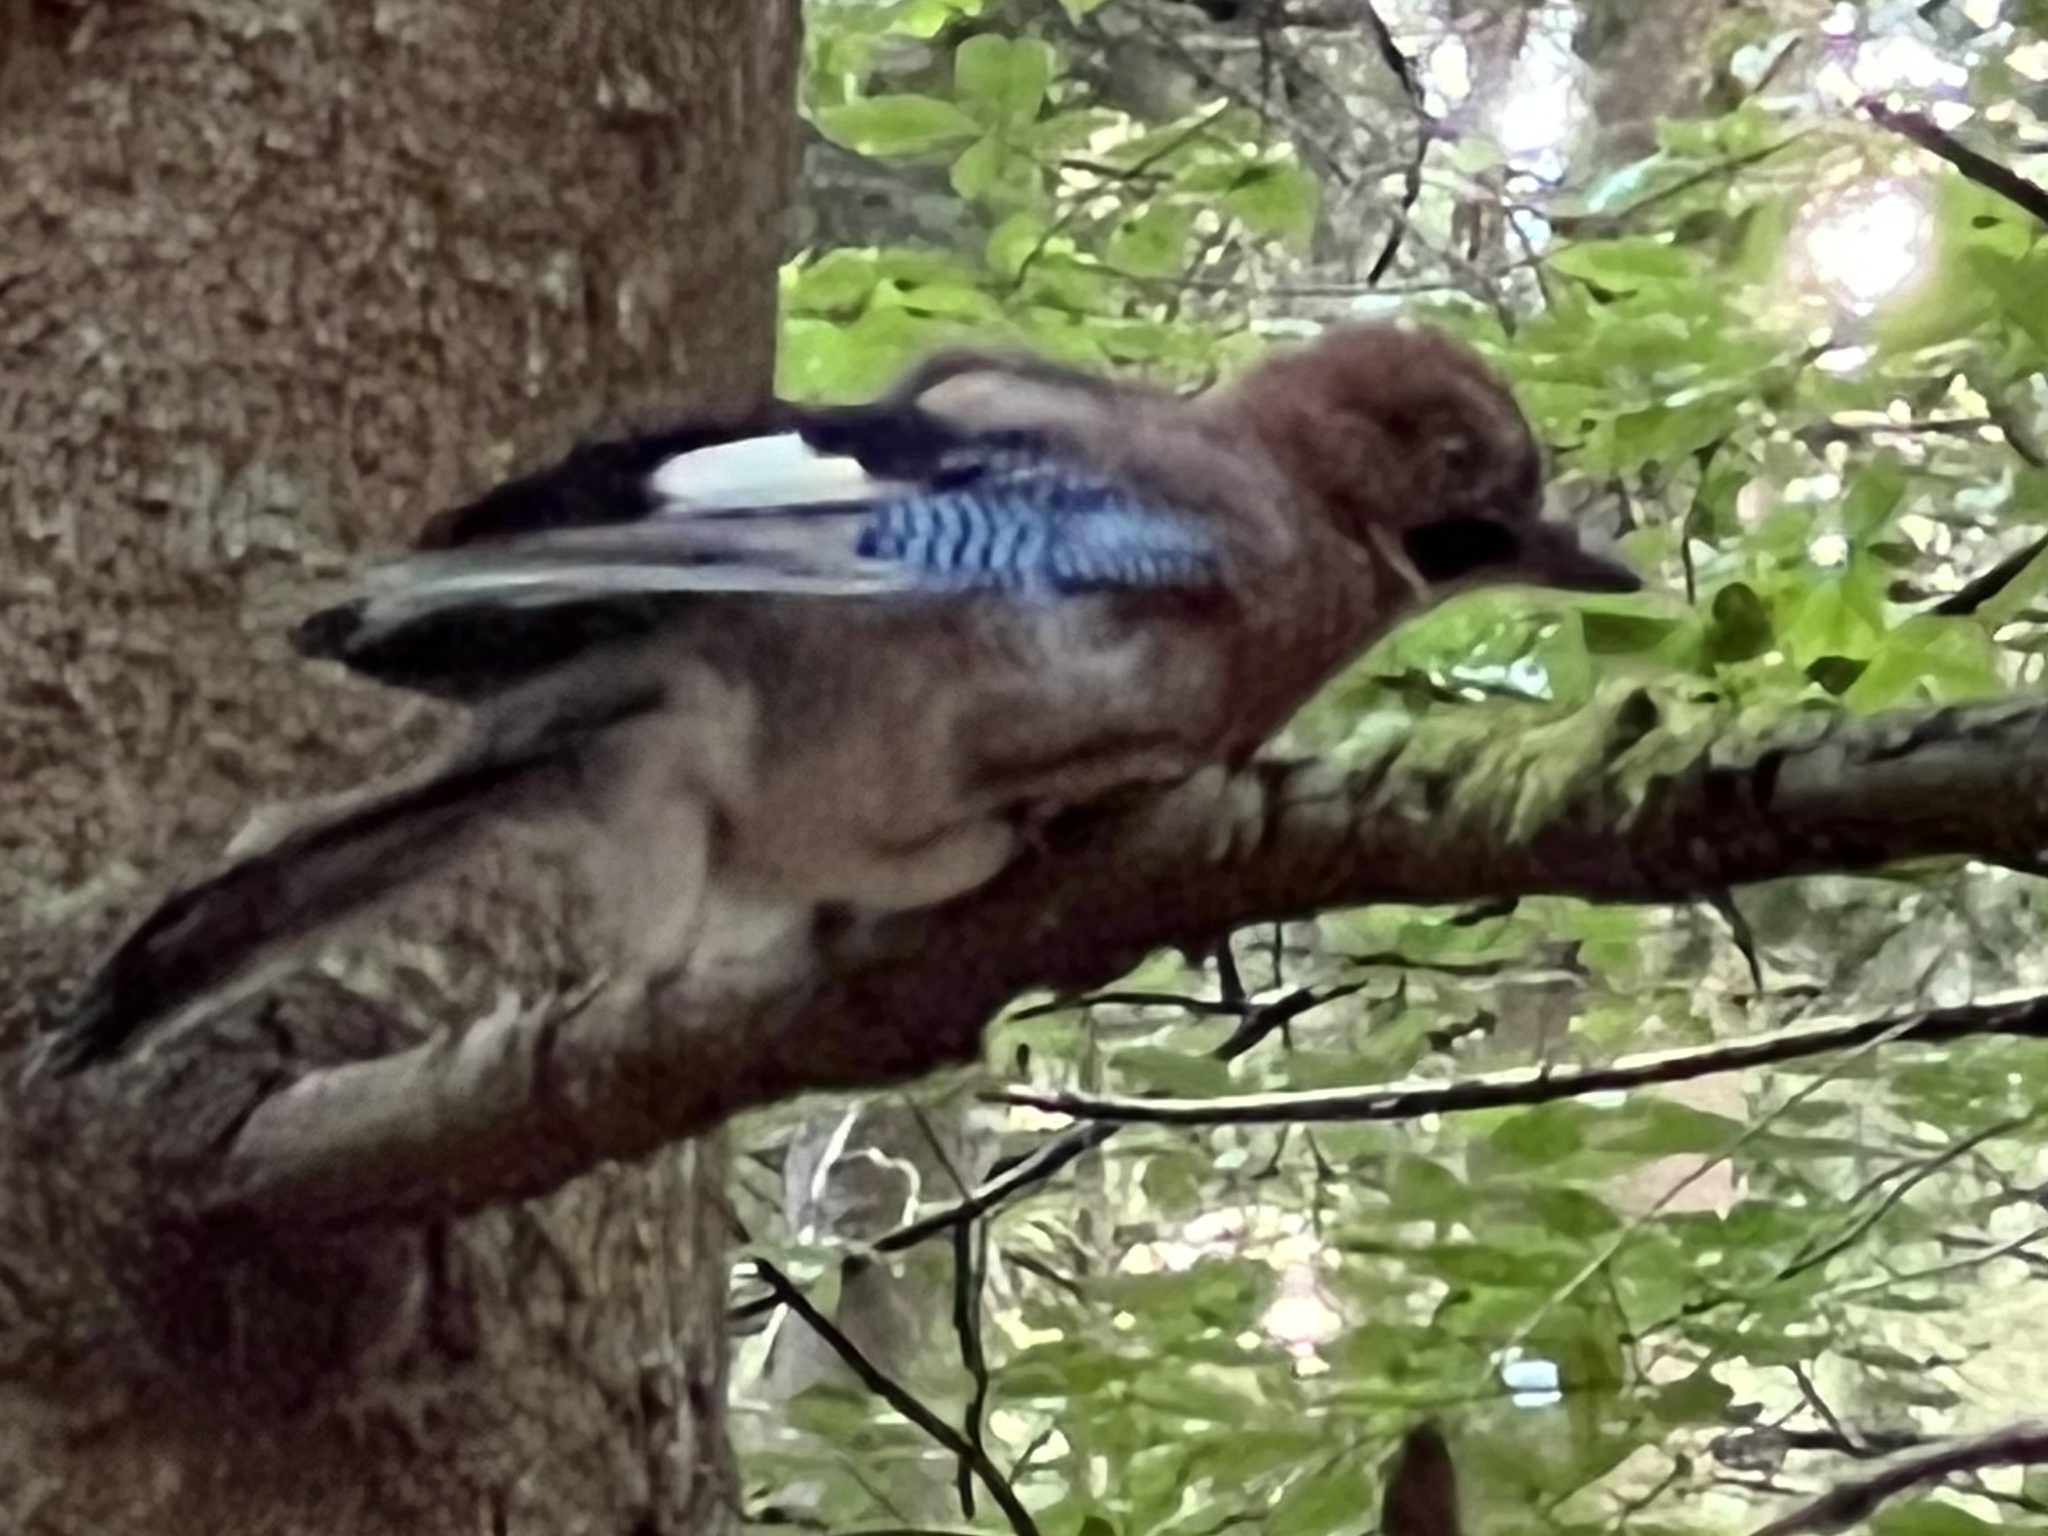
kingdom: Animalia
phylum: Chordata
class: Aves
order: Passeriformes
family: Corvidae
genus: Garrulus
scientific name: Garrulus glandarius
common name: Eurasian jay
